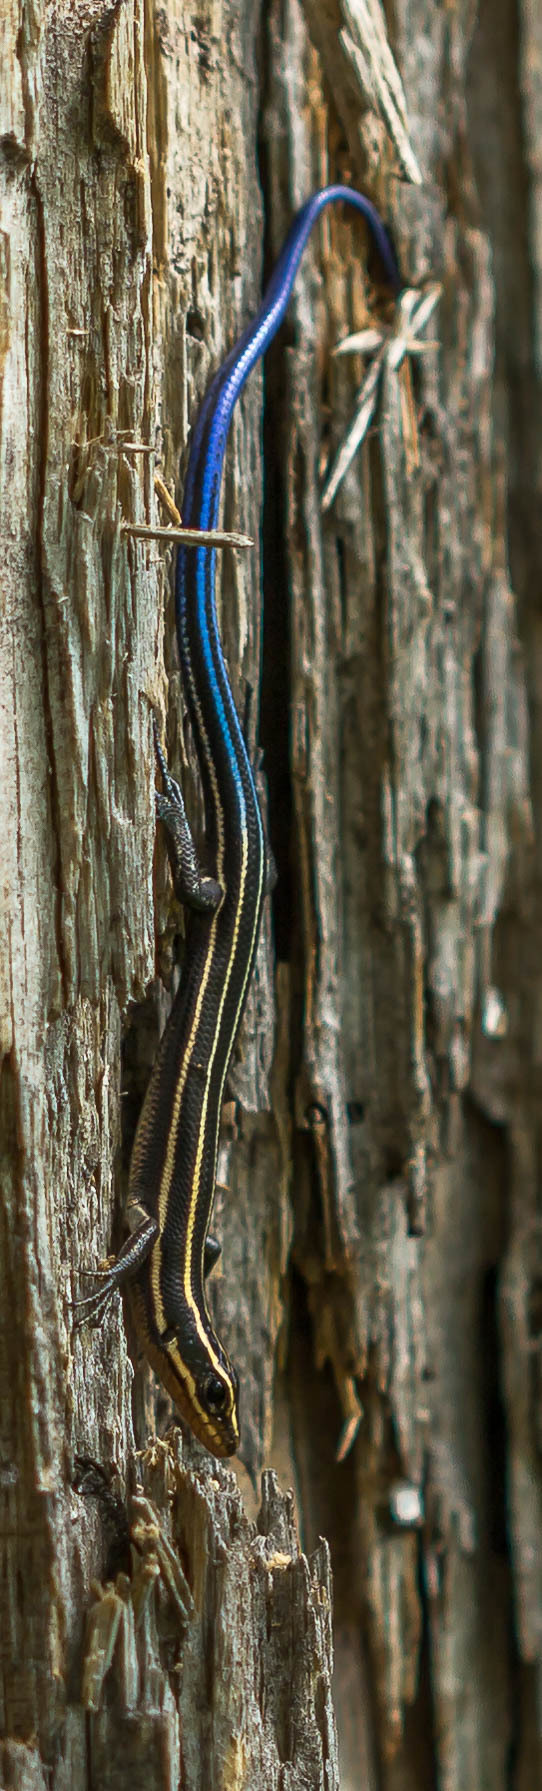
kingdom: Animalia
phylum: Chordata
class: Squamata
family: Scincidae
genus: Plestiodon
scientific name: Plestiodon fasciatus
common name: Five-lined skink
